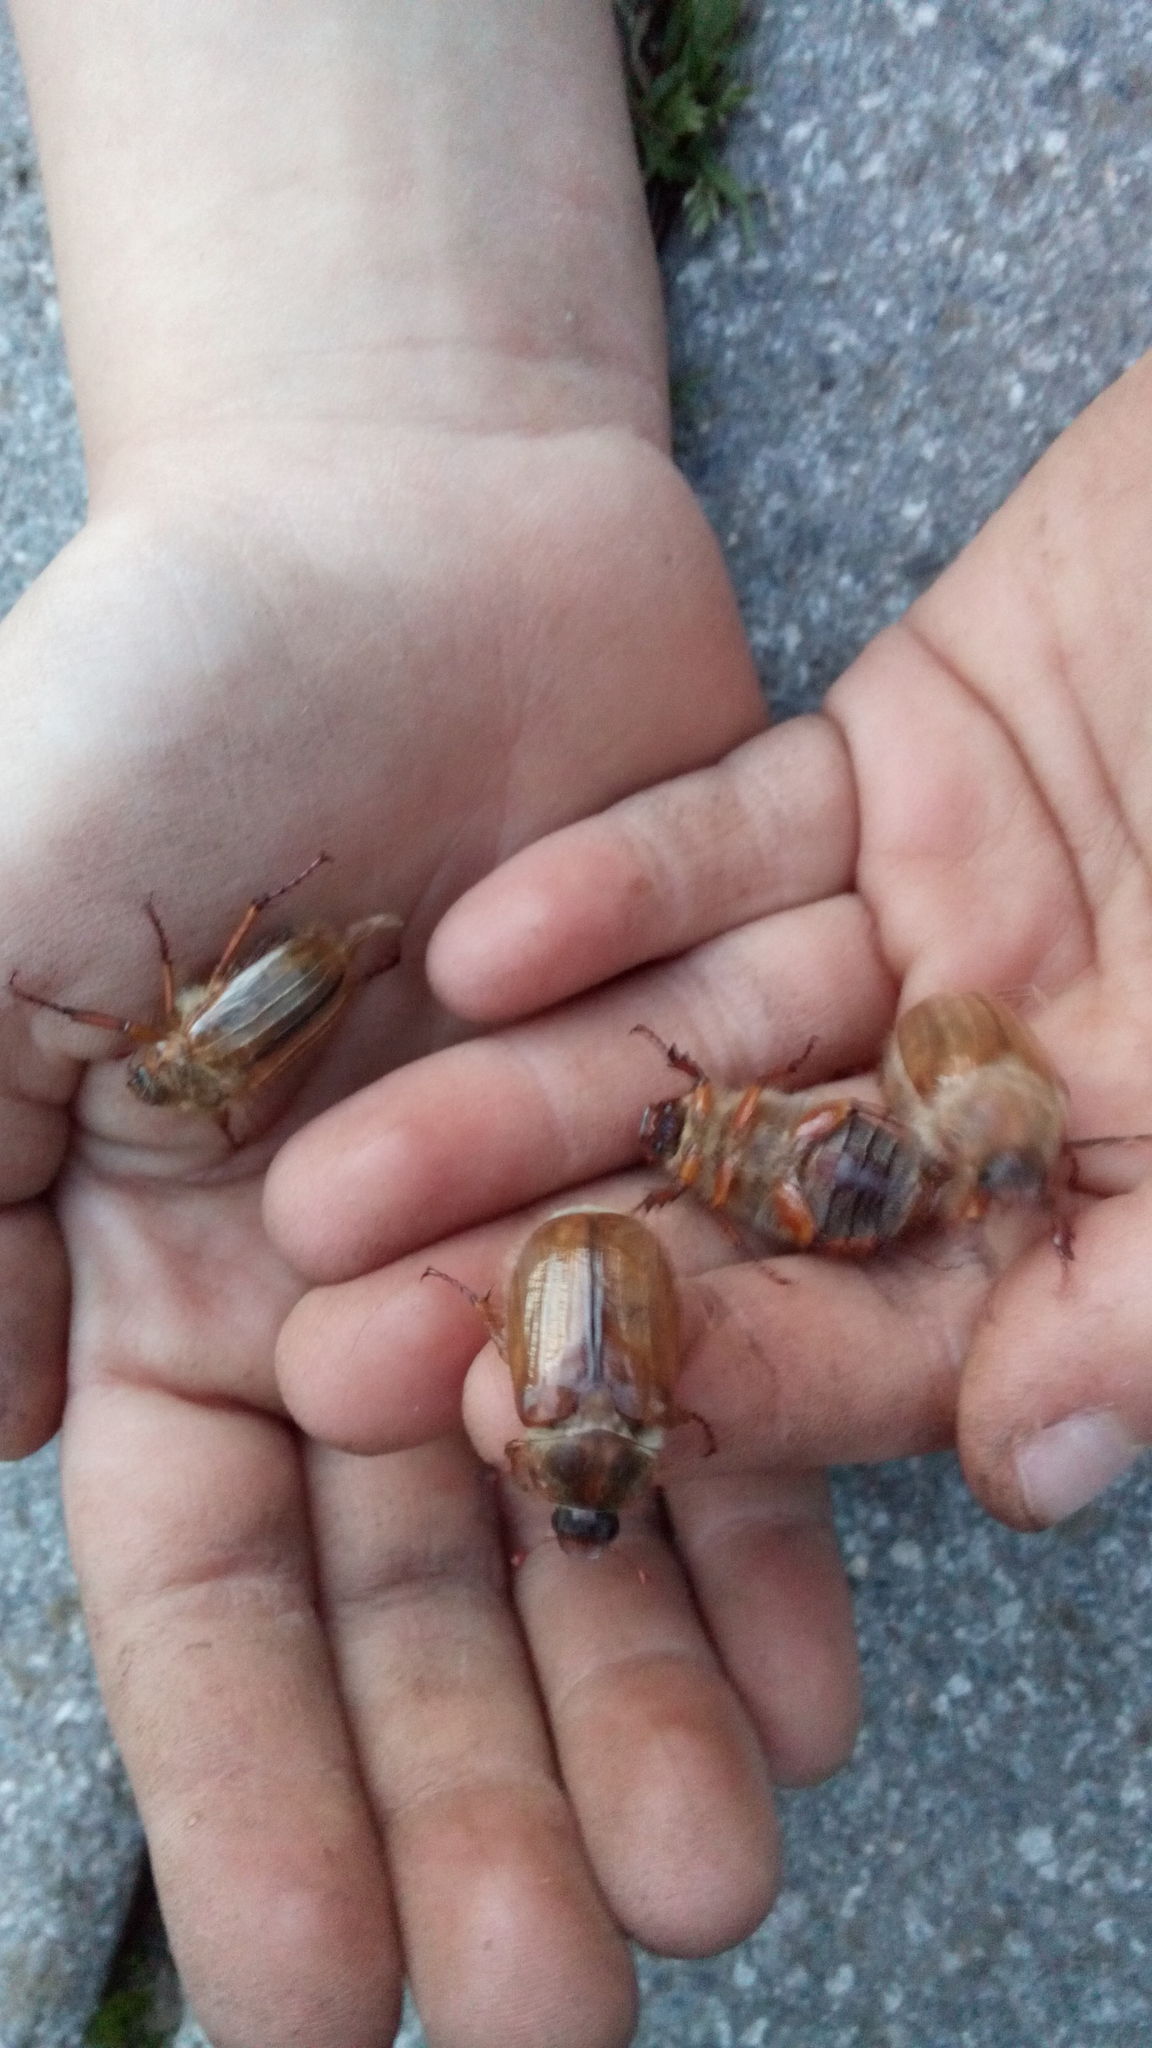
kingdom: Animalia
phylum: Arthropoda
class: Insecta
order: Coleoptera
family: Scarabaeidae
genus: Amphimallon
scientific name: Amphimallon solstitiale
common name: Summer chafer
